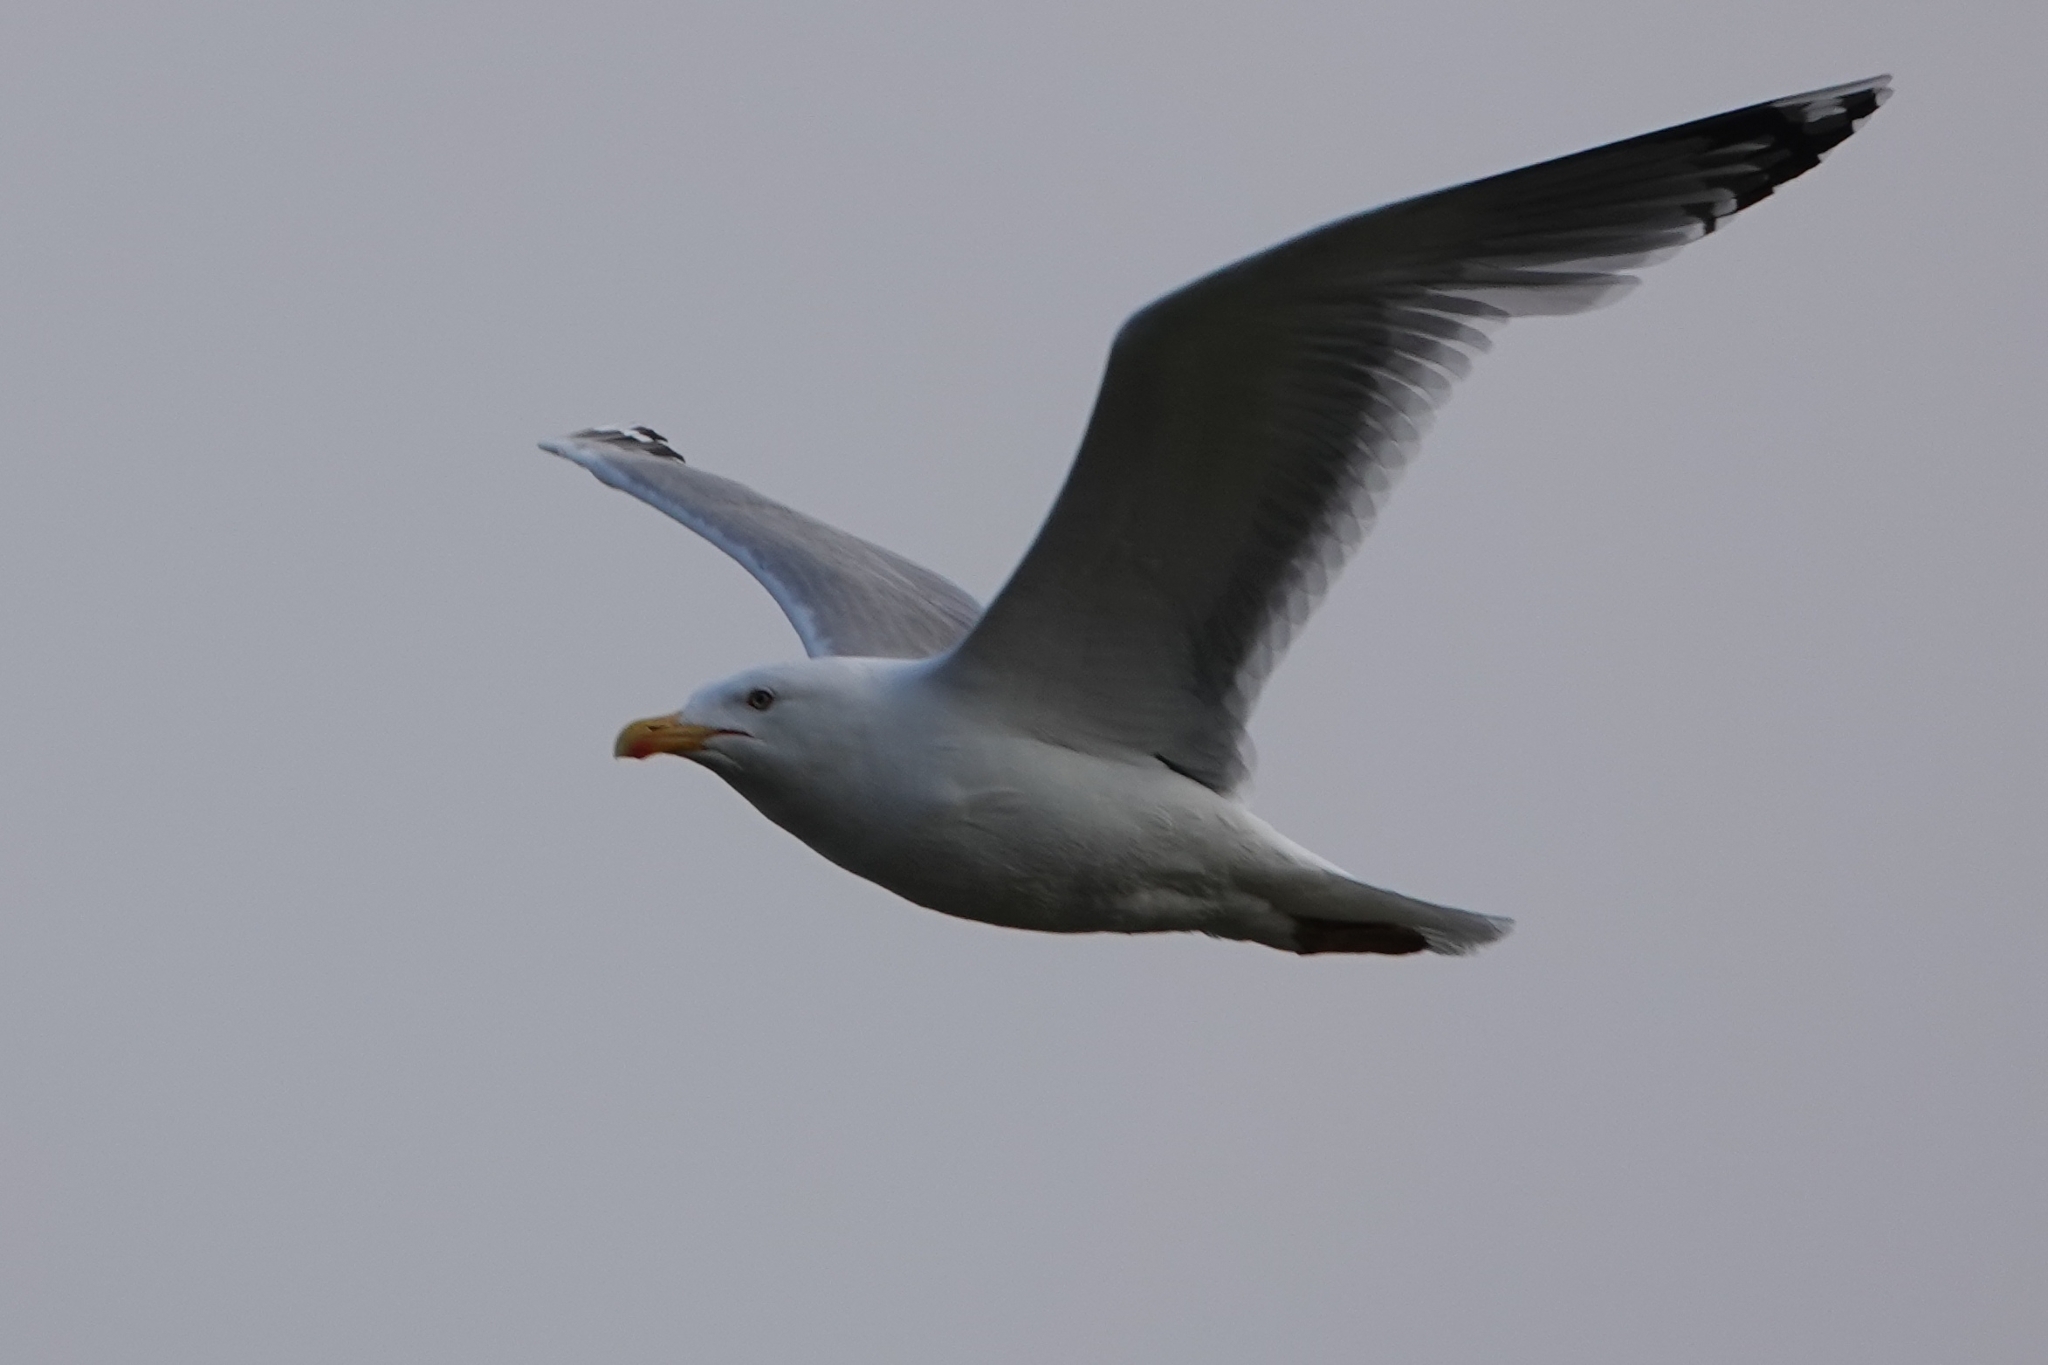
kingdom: Animalia
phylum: Chordata
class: Aves
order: Charadriiformes
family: Laridae
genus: Larus
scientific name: Larus argentatus
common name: Herring gull
